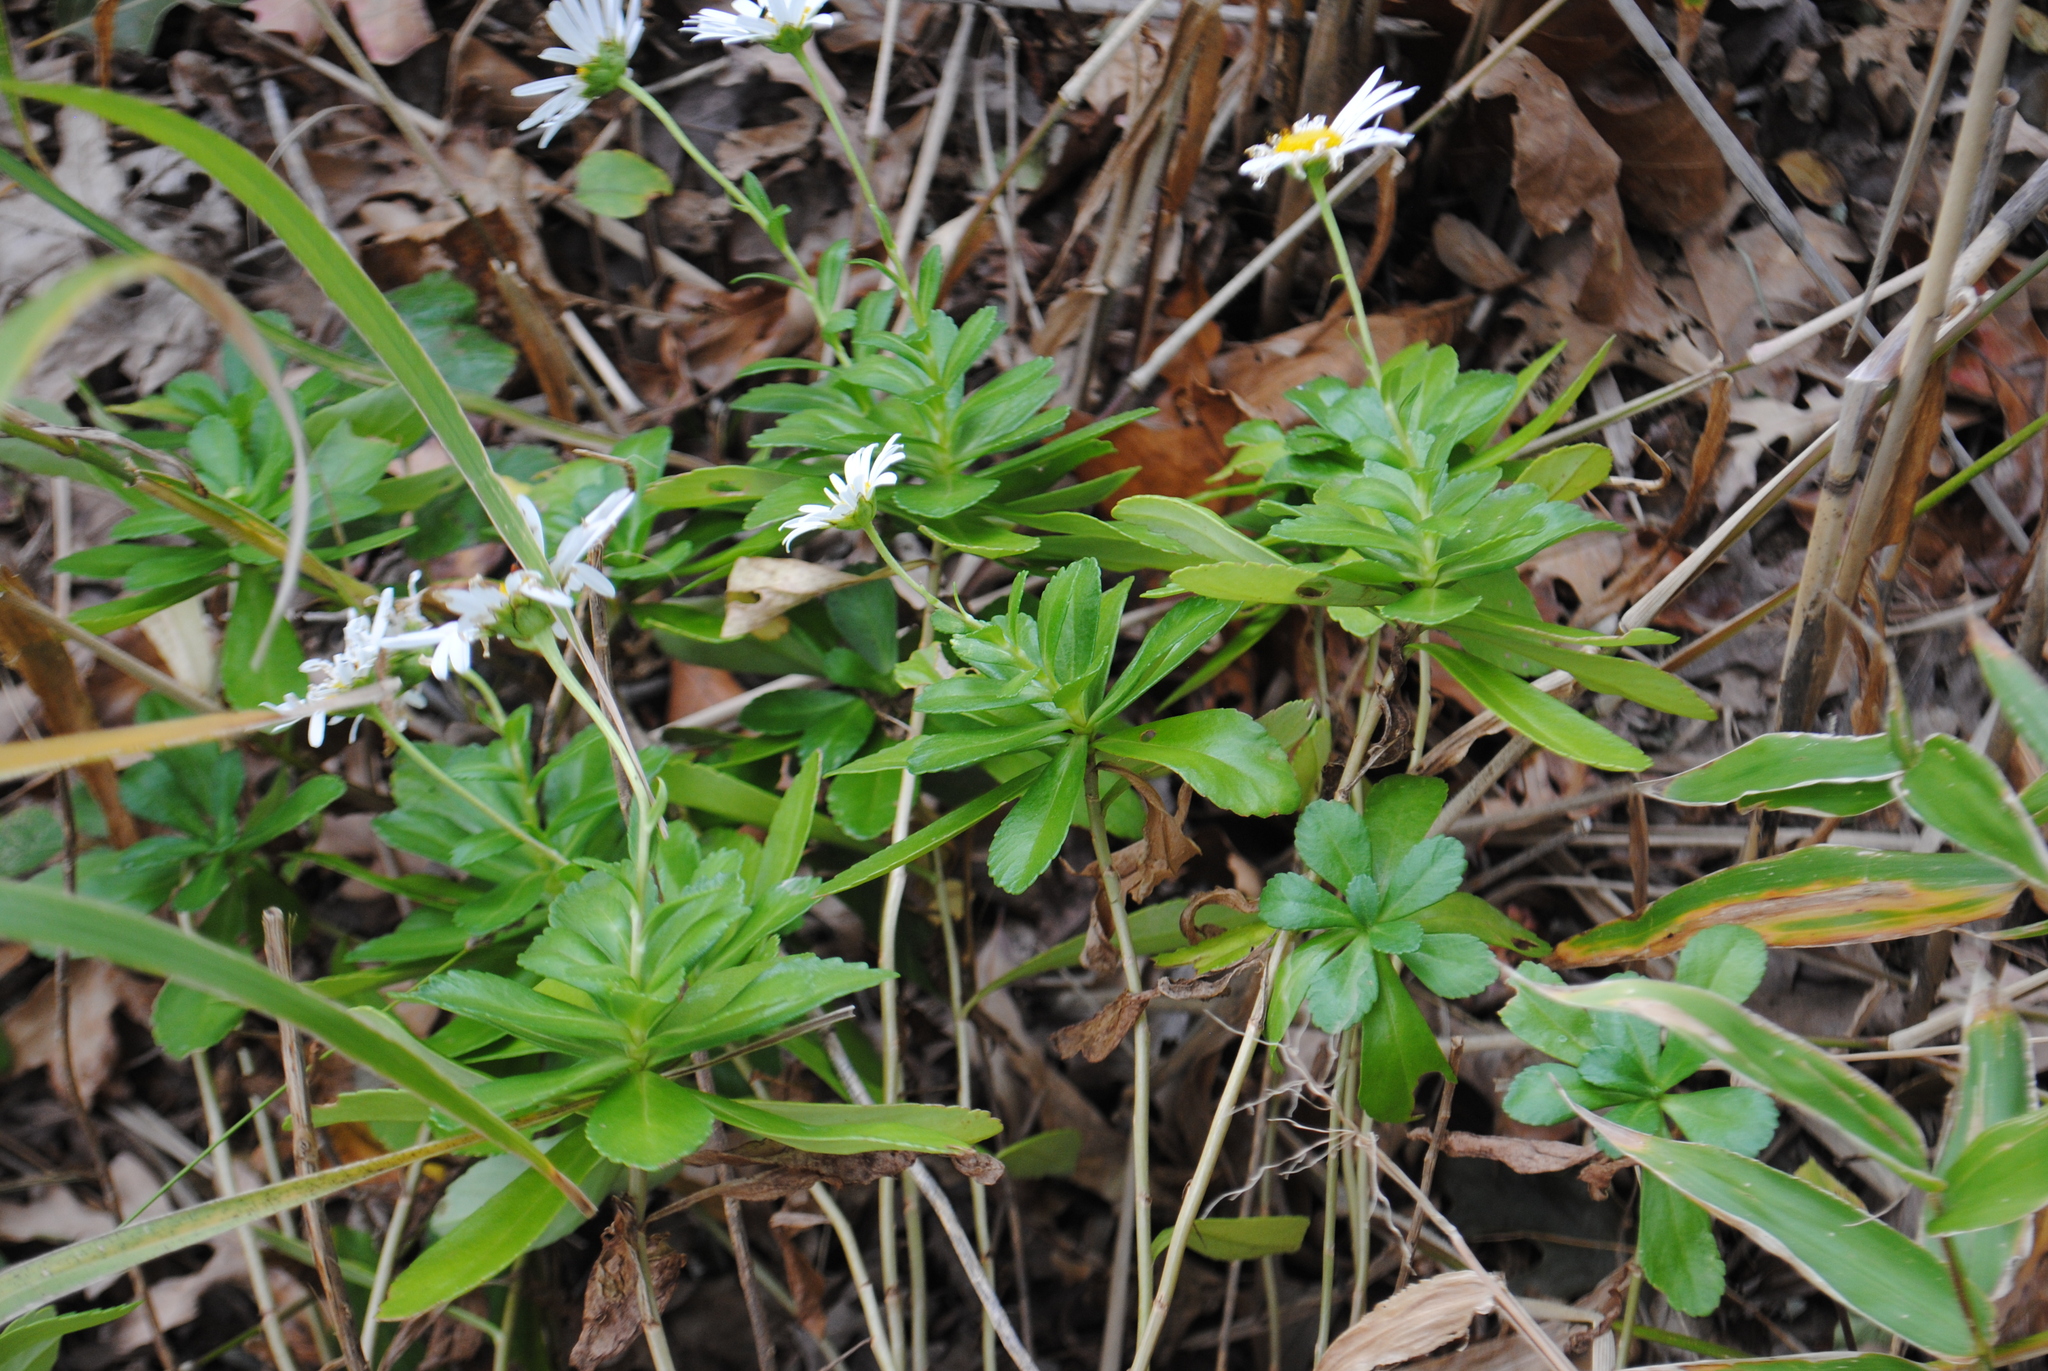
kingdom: Plantae
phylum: Tracheophyta
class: Magnoliopsida
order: Asterales
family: Asteraceae
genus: Nipponanthemum
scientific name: Nipponanthemum nipponicum
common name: Nippon daisy
